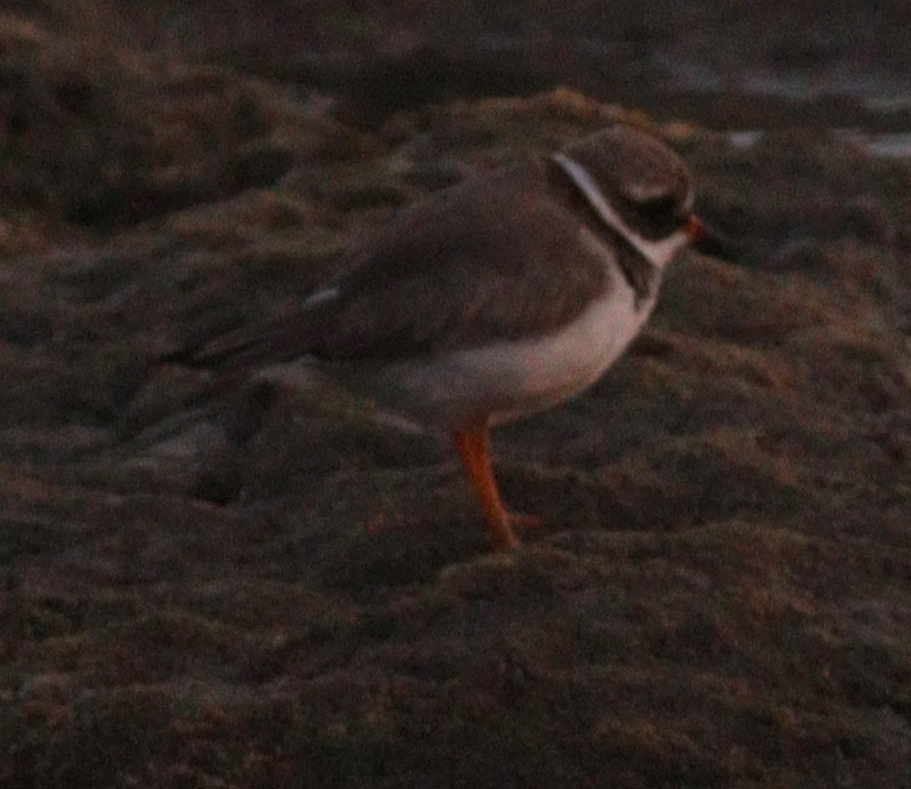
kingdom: Animalia
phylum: Chordata
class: Aves
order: Charadriiformes
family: Charadriidae
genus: Charadrius
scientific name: Charadrius hiaticula
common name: Common ringed plover
